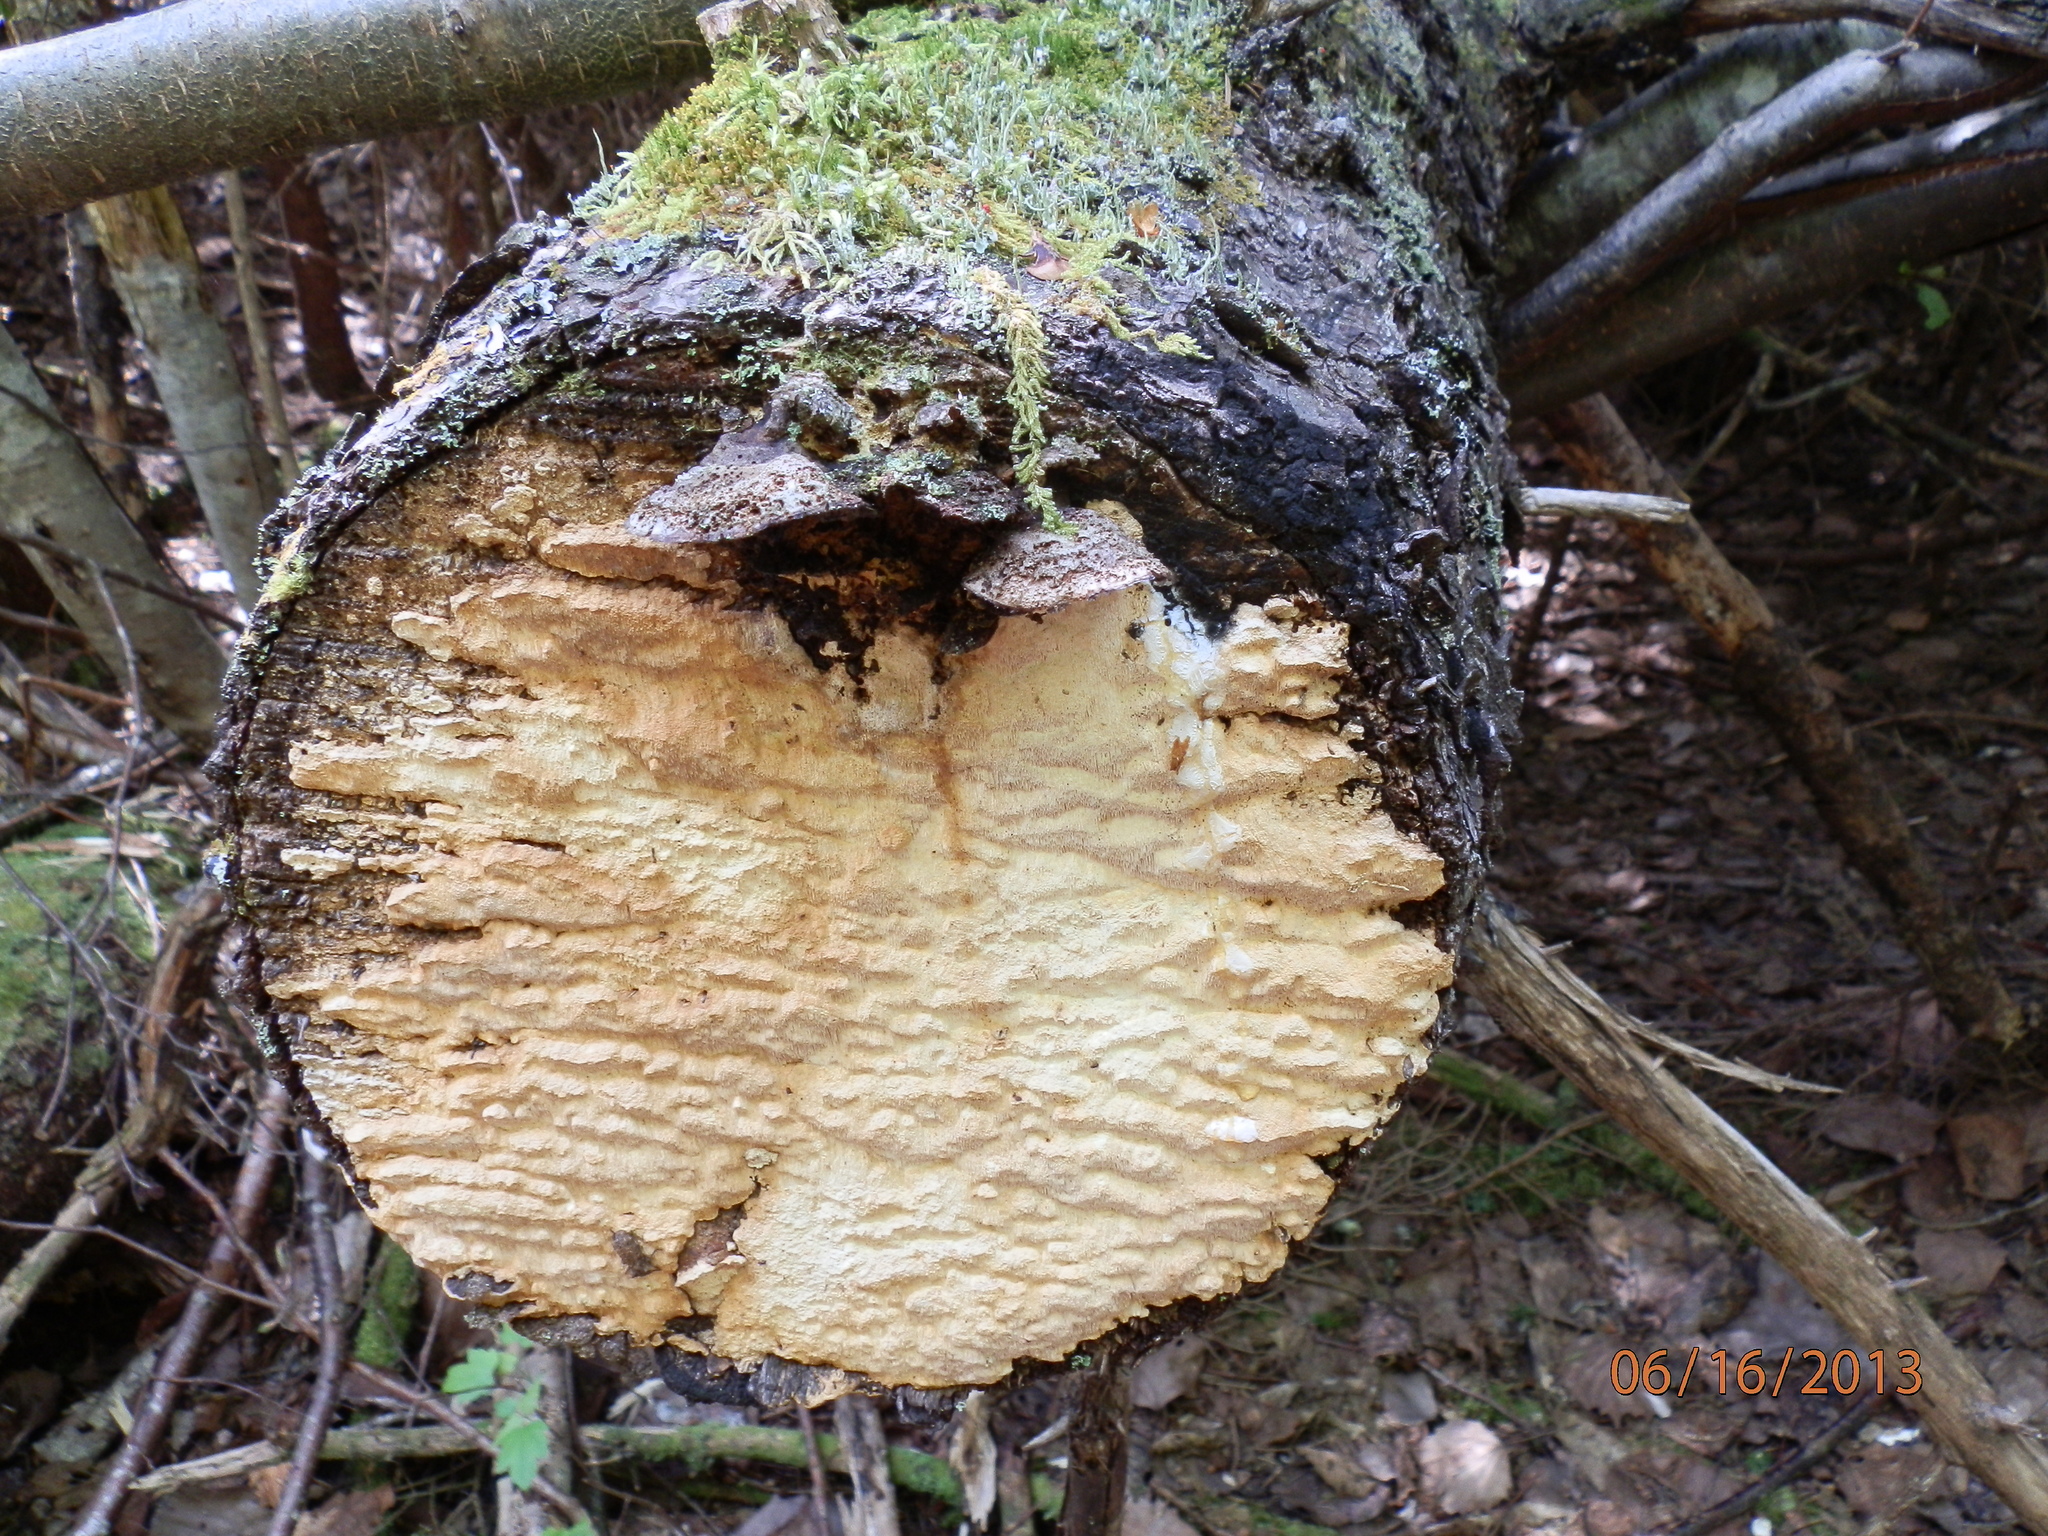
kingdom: Fungi
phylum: Basidiomycota
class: Agaricomycetes
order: Polyporales
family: Polyporaceae
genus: Daedaleopsis
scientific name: Daedaleopsis septentrionalis
